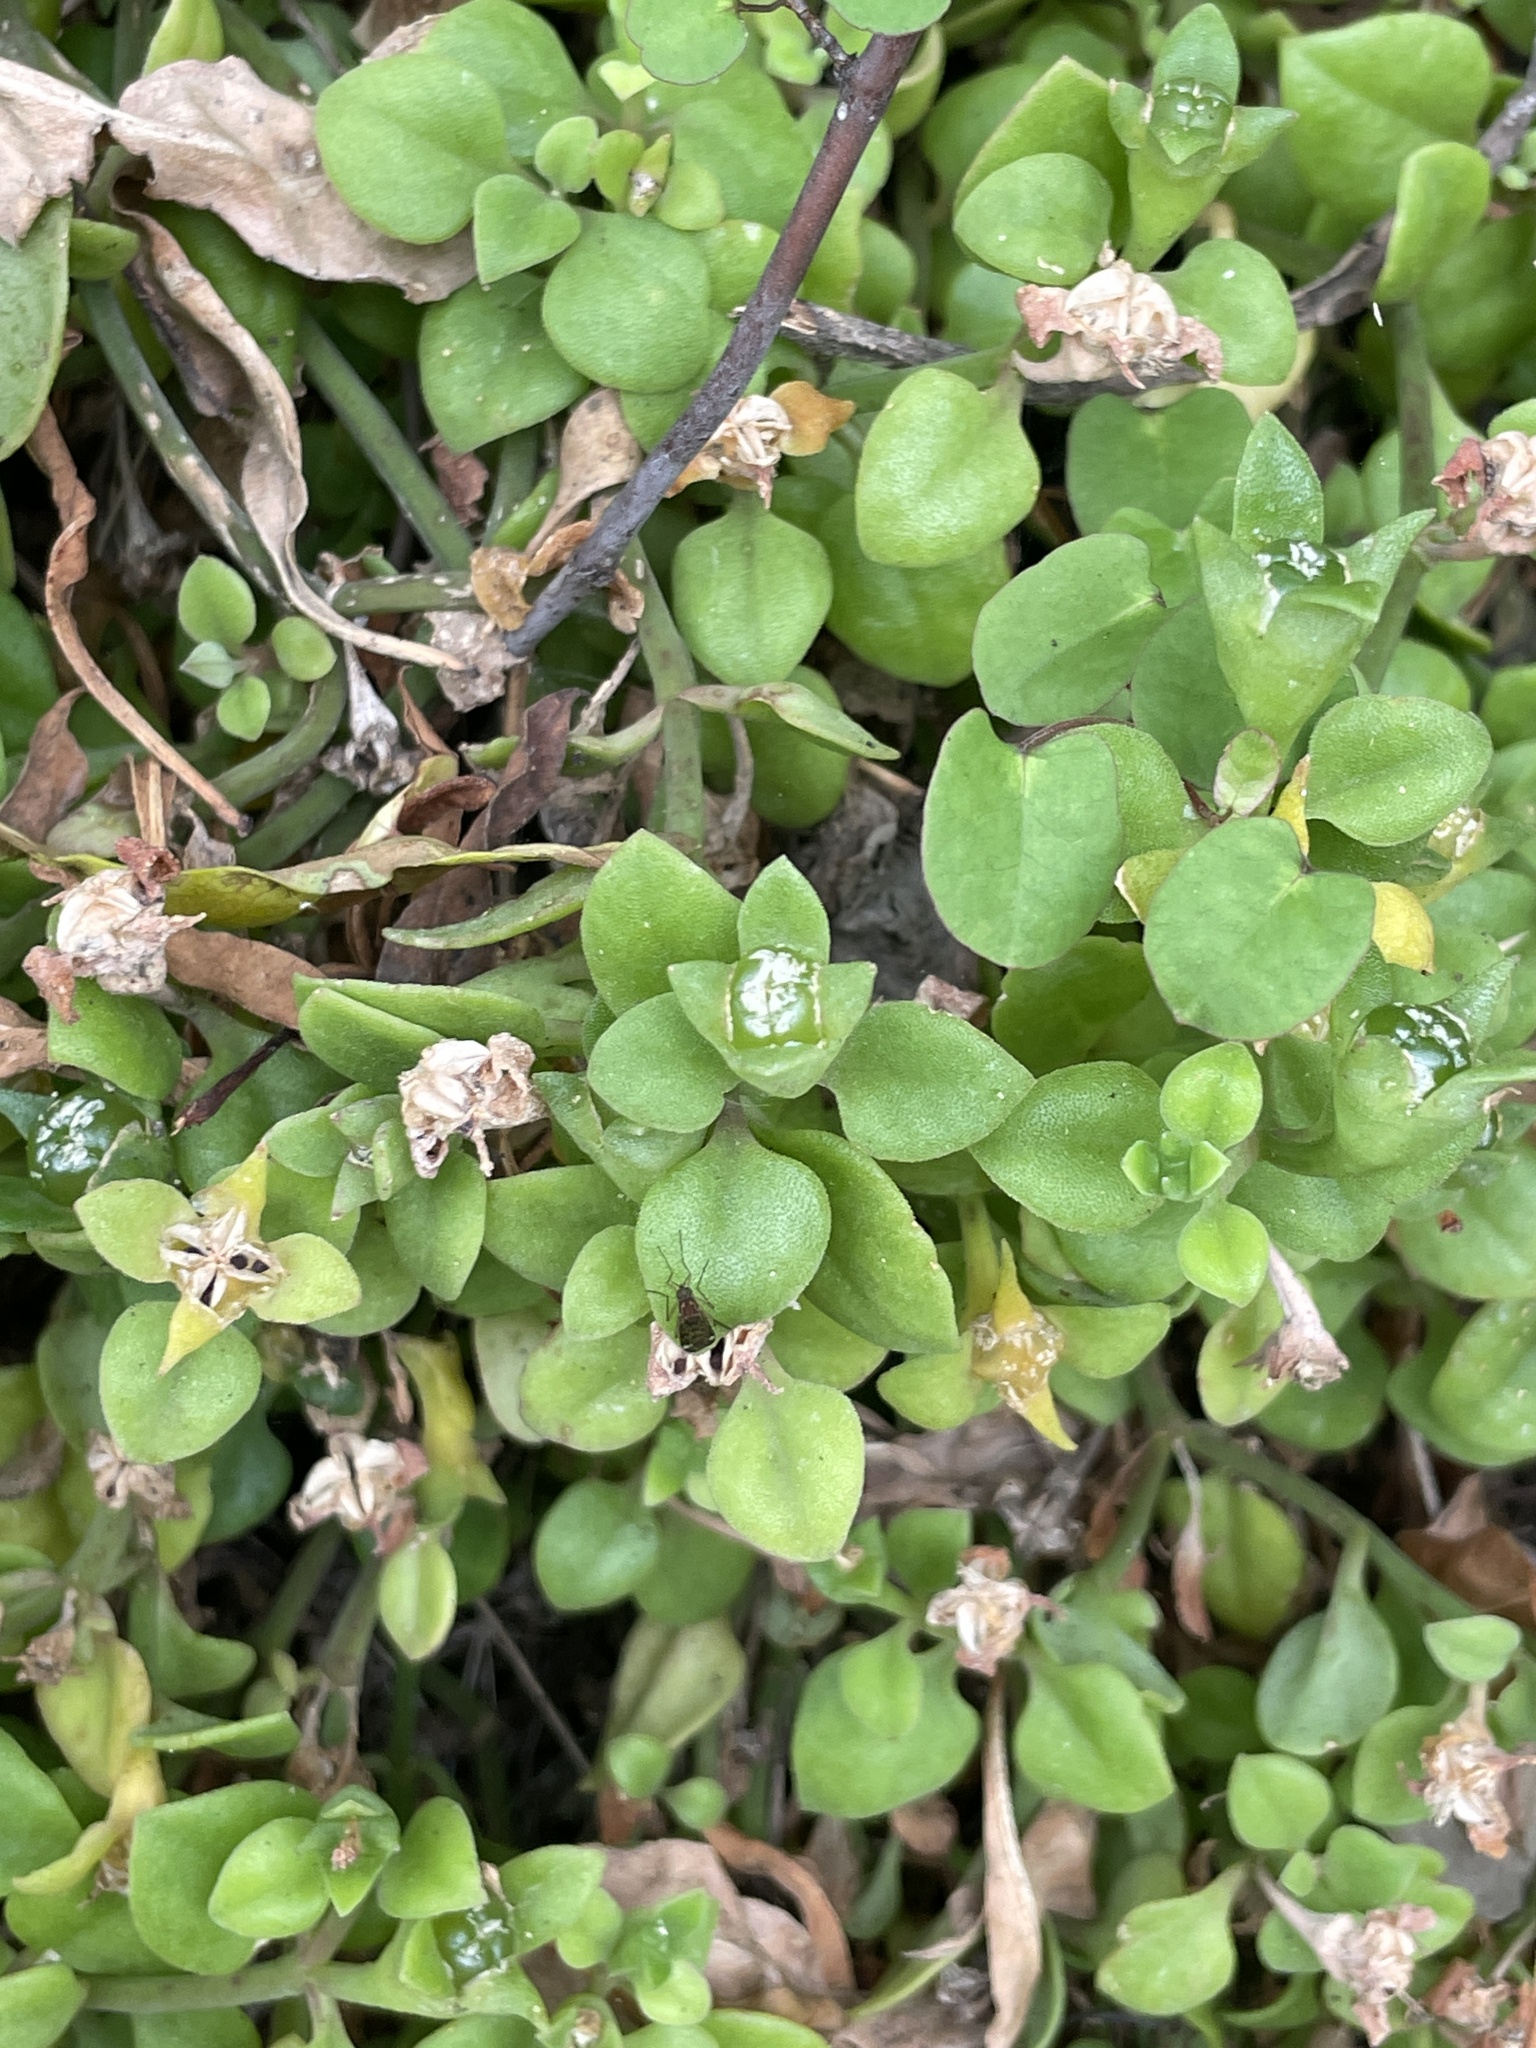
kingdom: Plantae
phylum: Tracheophyta
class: Magnoliopsida
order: Caryophyllales
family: Aizoaceae
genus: Mesembryanthemum
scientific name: Mesembryanthemum cordifolium
